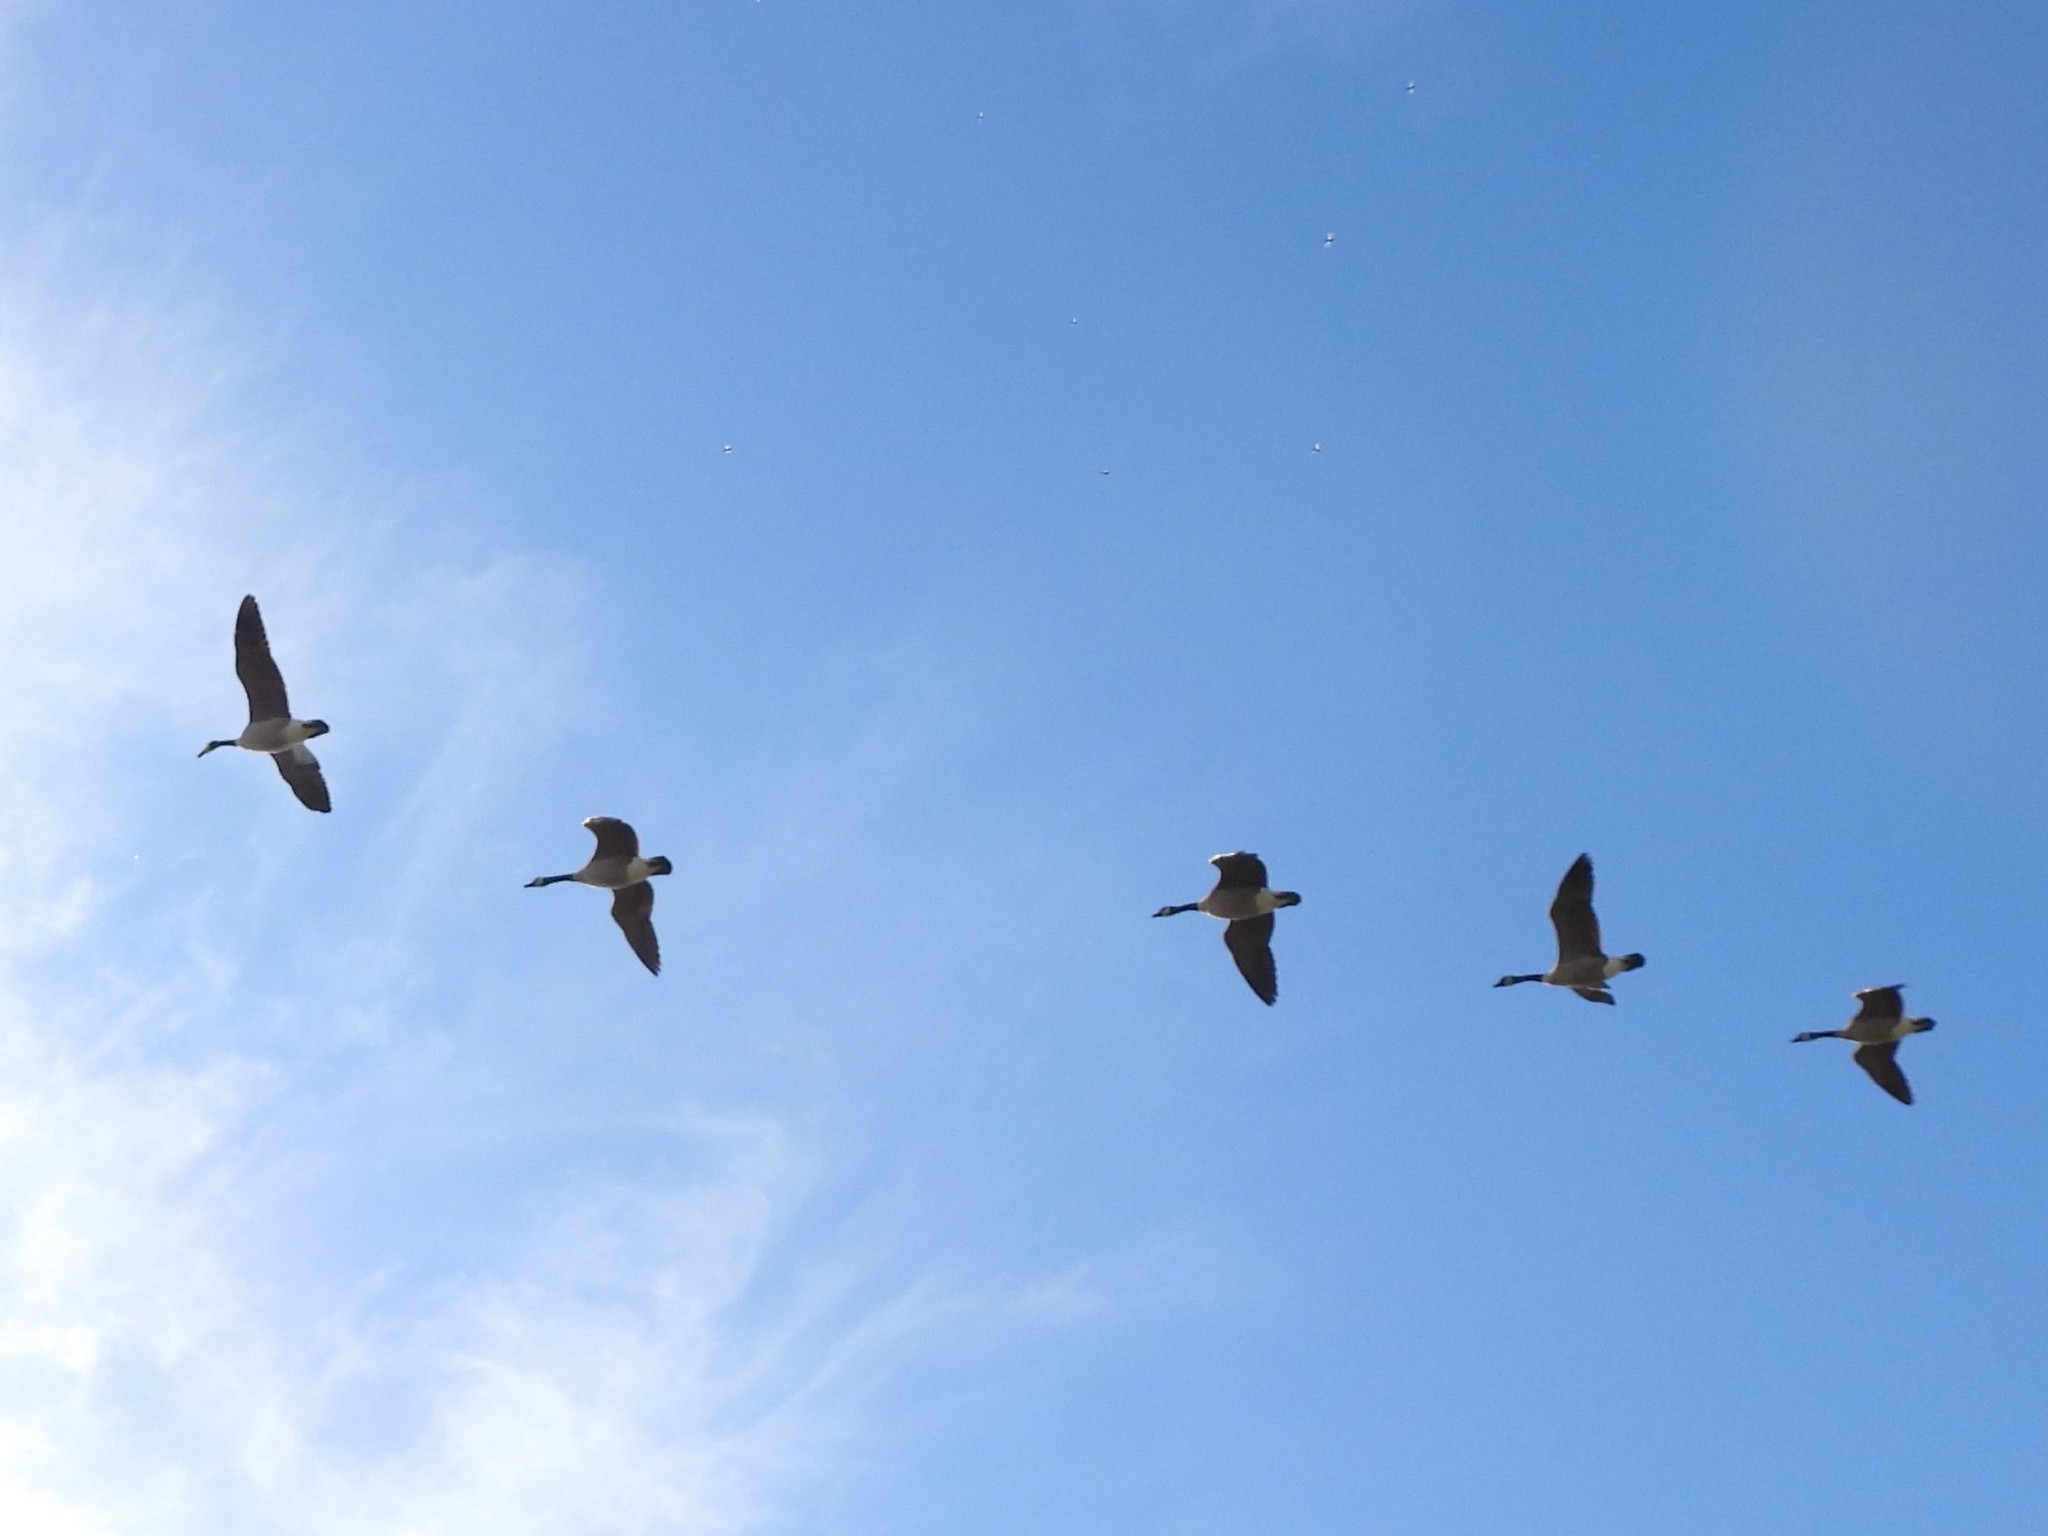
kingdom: Animalia
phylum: Chordata
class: Aves
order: Anseriformes
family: Anatidae
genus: Branta
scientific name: Branta canadensis
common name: Canada goose
